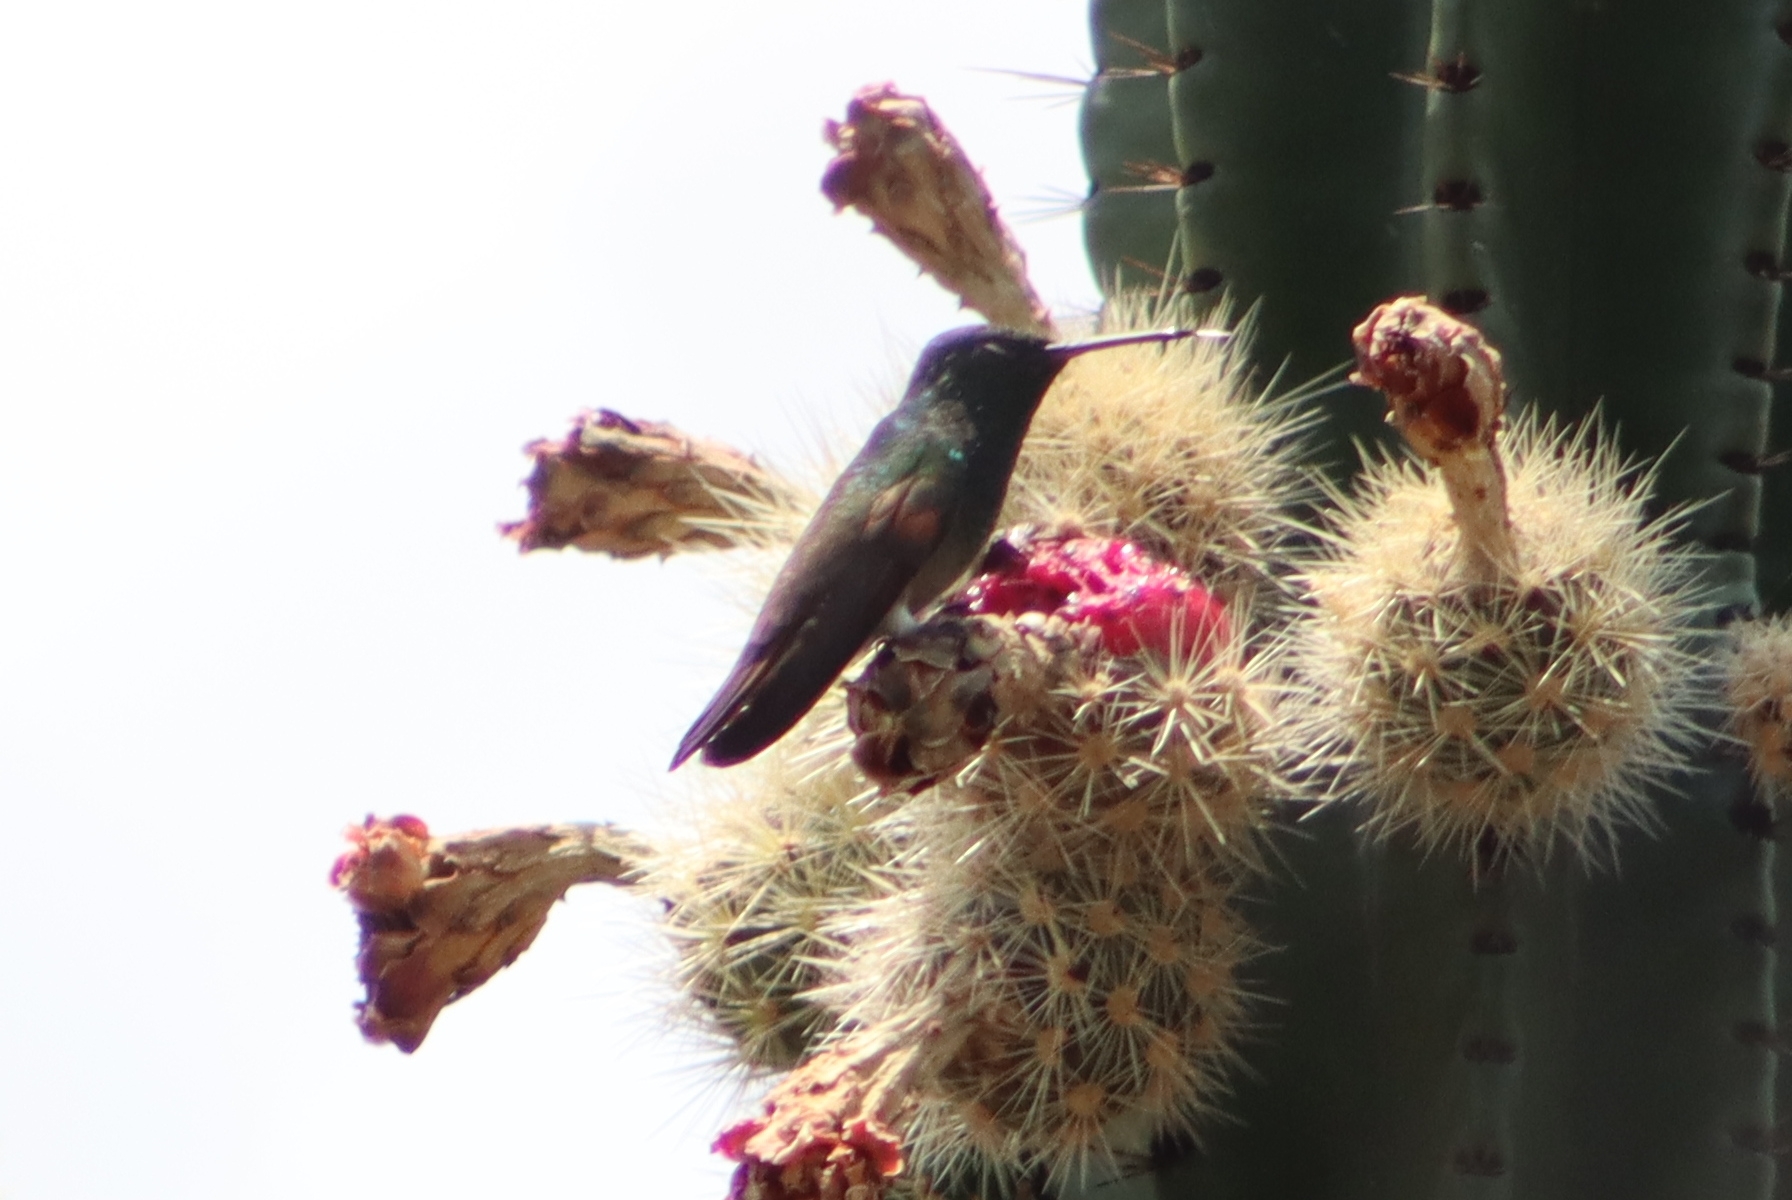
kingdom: Animalia
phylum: Chordata
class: Aves
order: Apodiformes
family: Trochilidae
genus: Saucerottia
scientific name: Saucerottia beryllina
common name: Berylline hummingbird
